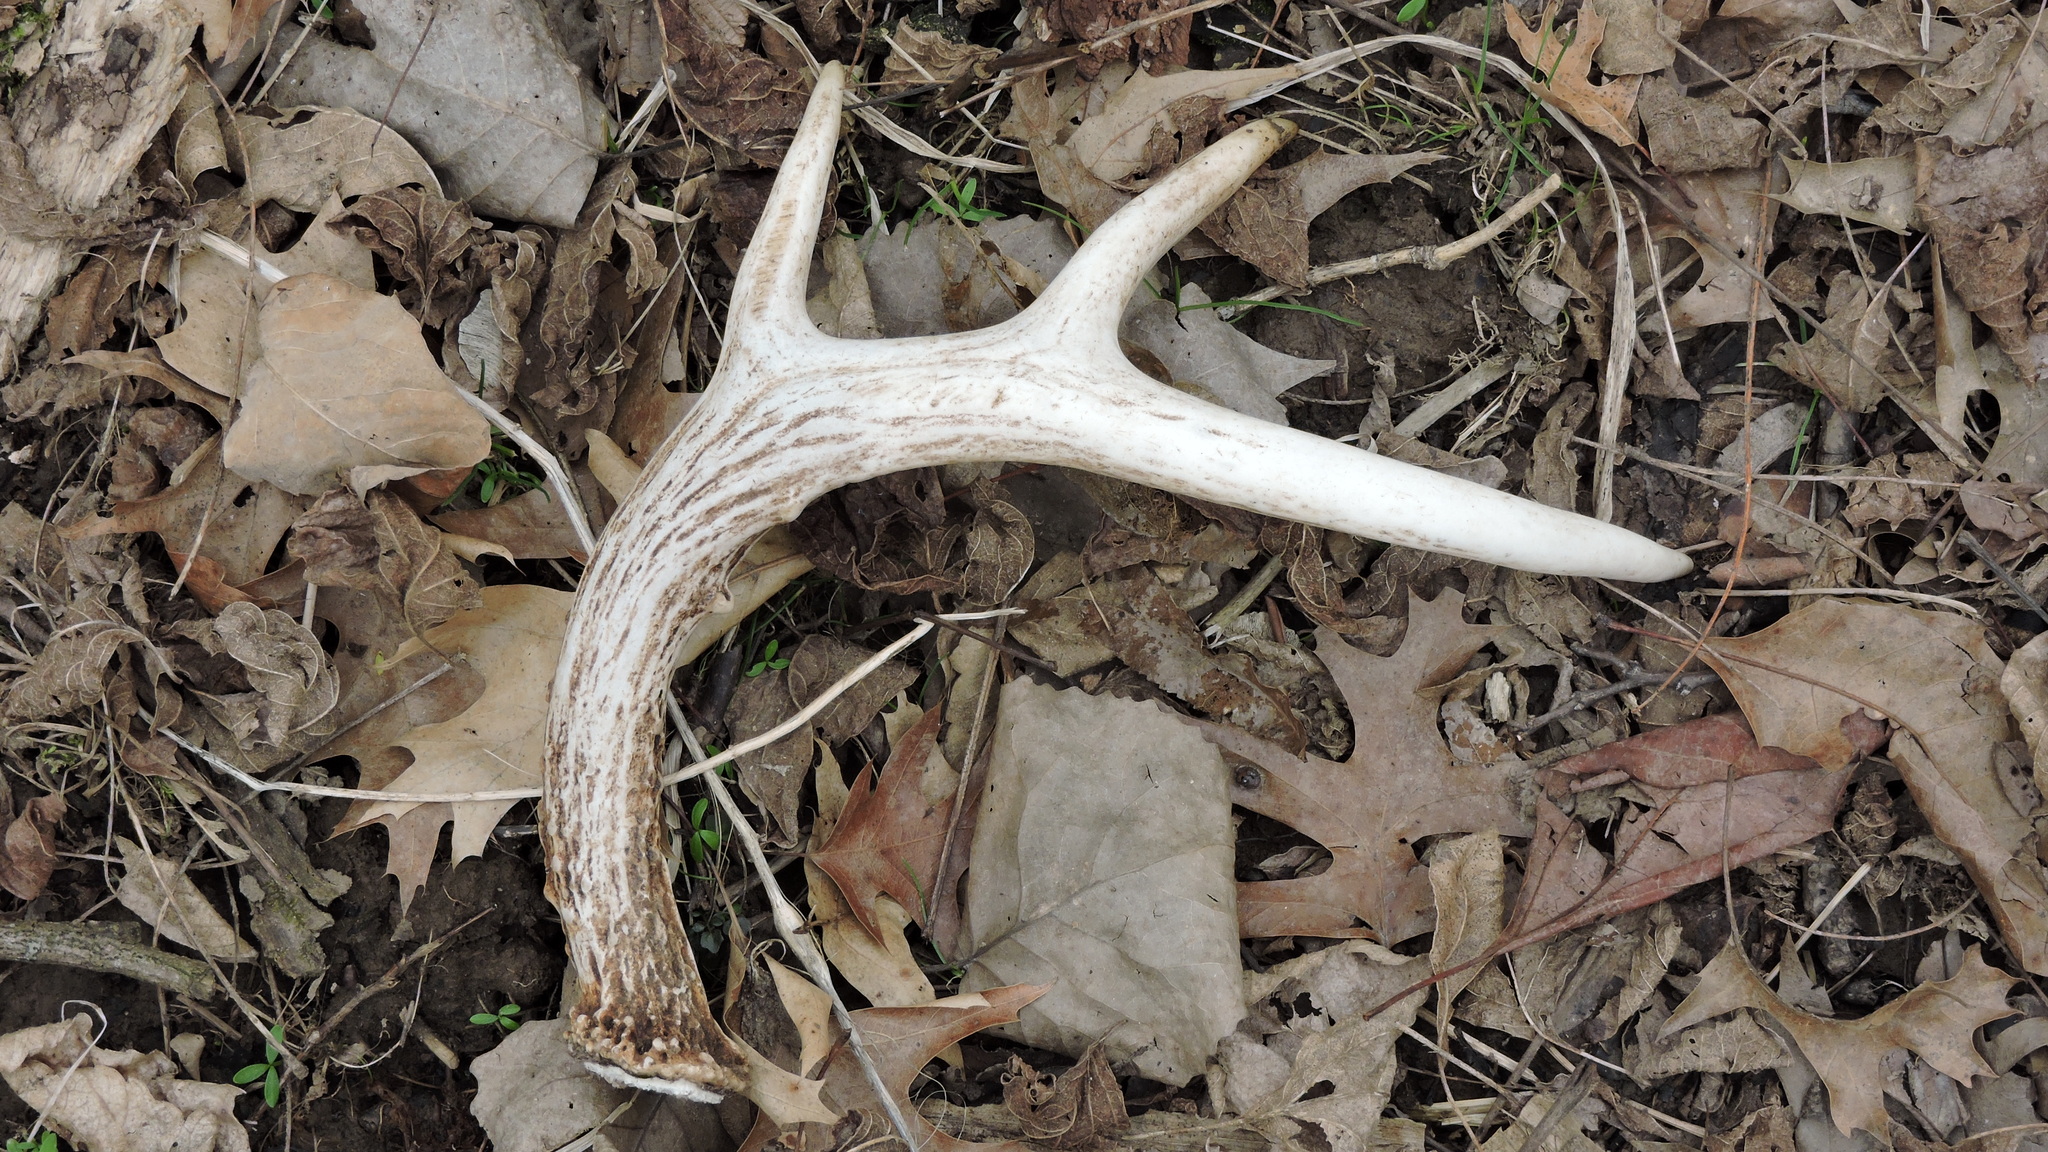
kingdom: Animalia
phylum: Chordata
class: Mammalia
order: Artiodactyla
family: Cervidae
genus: Odocoileus
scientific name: Odocoileus virginianus
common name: White-tailed deer
